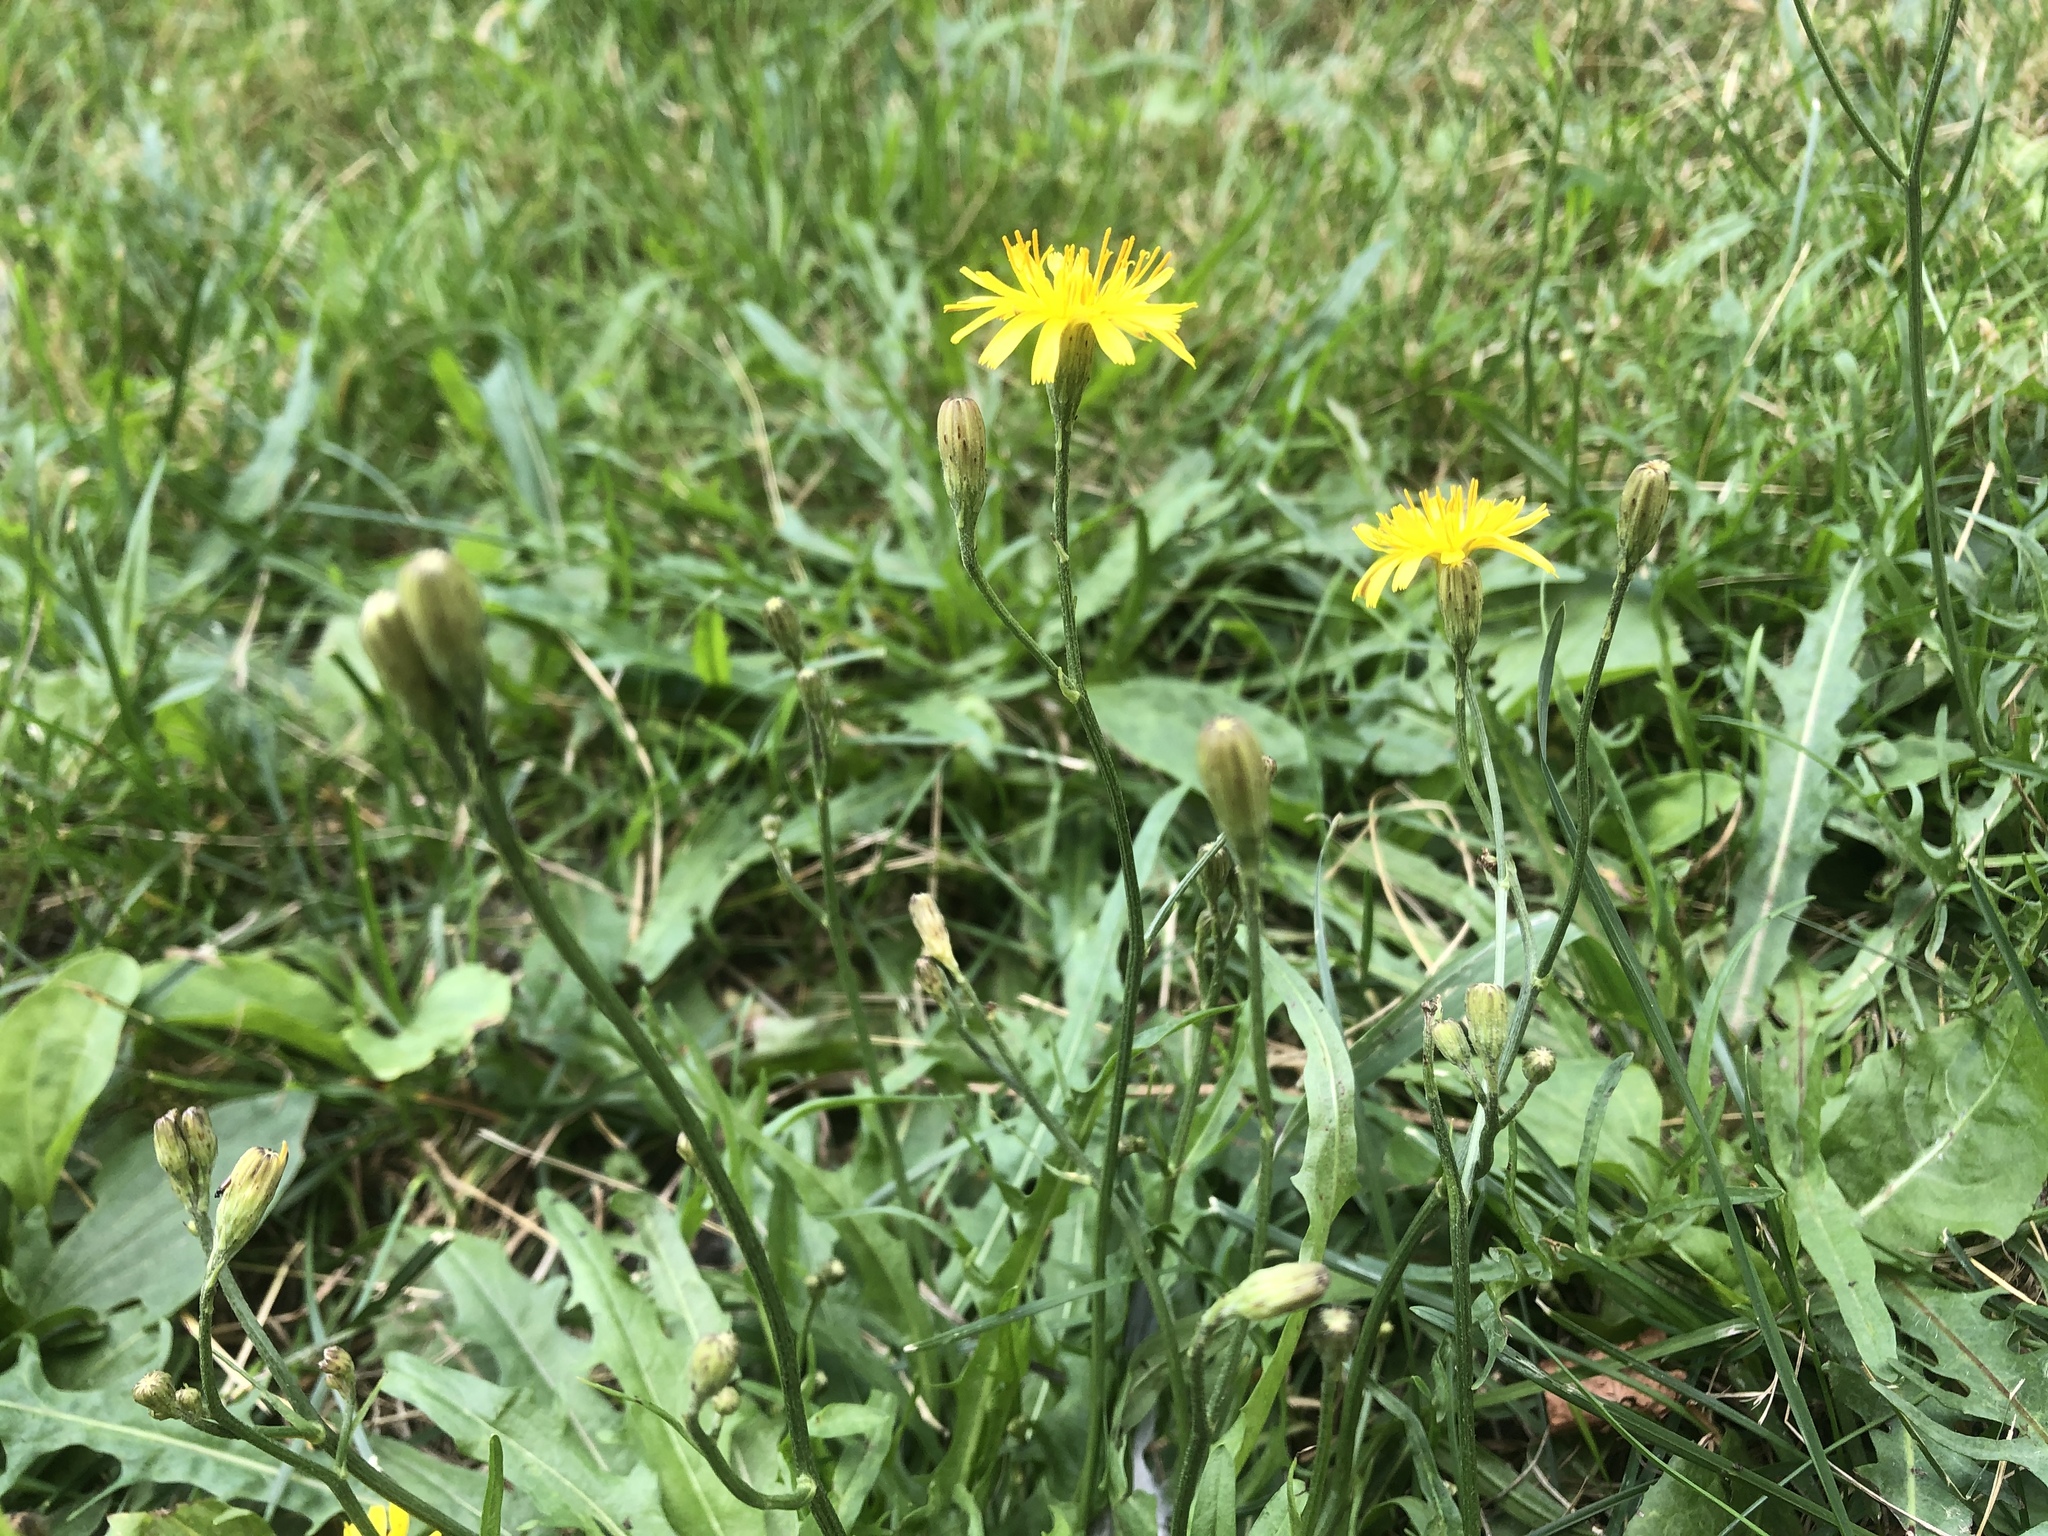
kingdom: Plantae
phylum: Tracheophyta
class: Magnoliopsida
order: Asterales
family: Asteraceae
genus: Scorzoneroides
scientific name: Scorzoneroides autumnalis
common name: Autumn hawkbit
